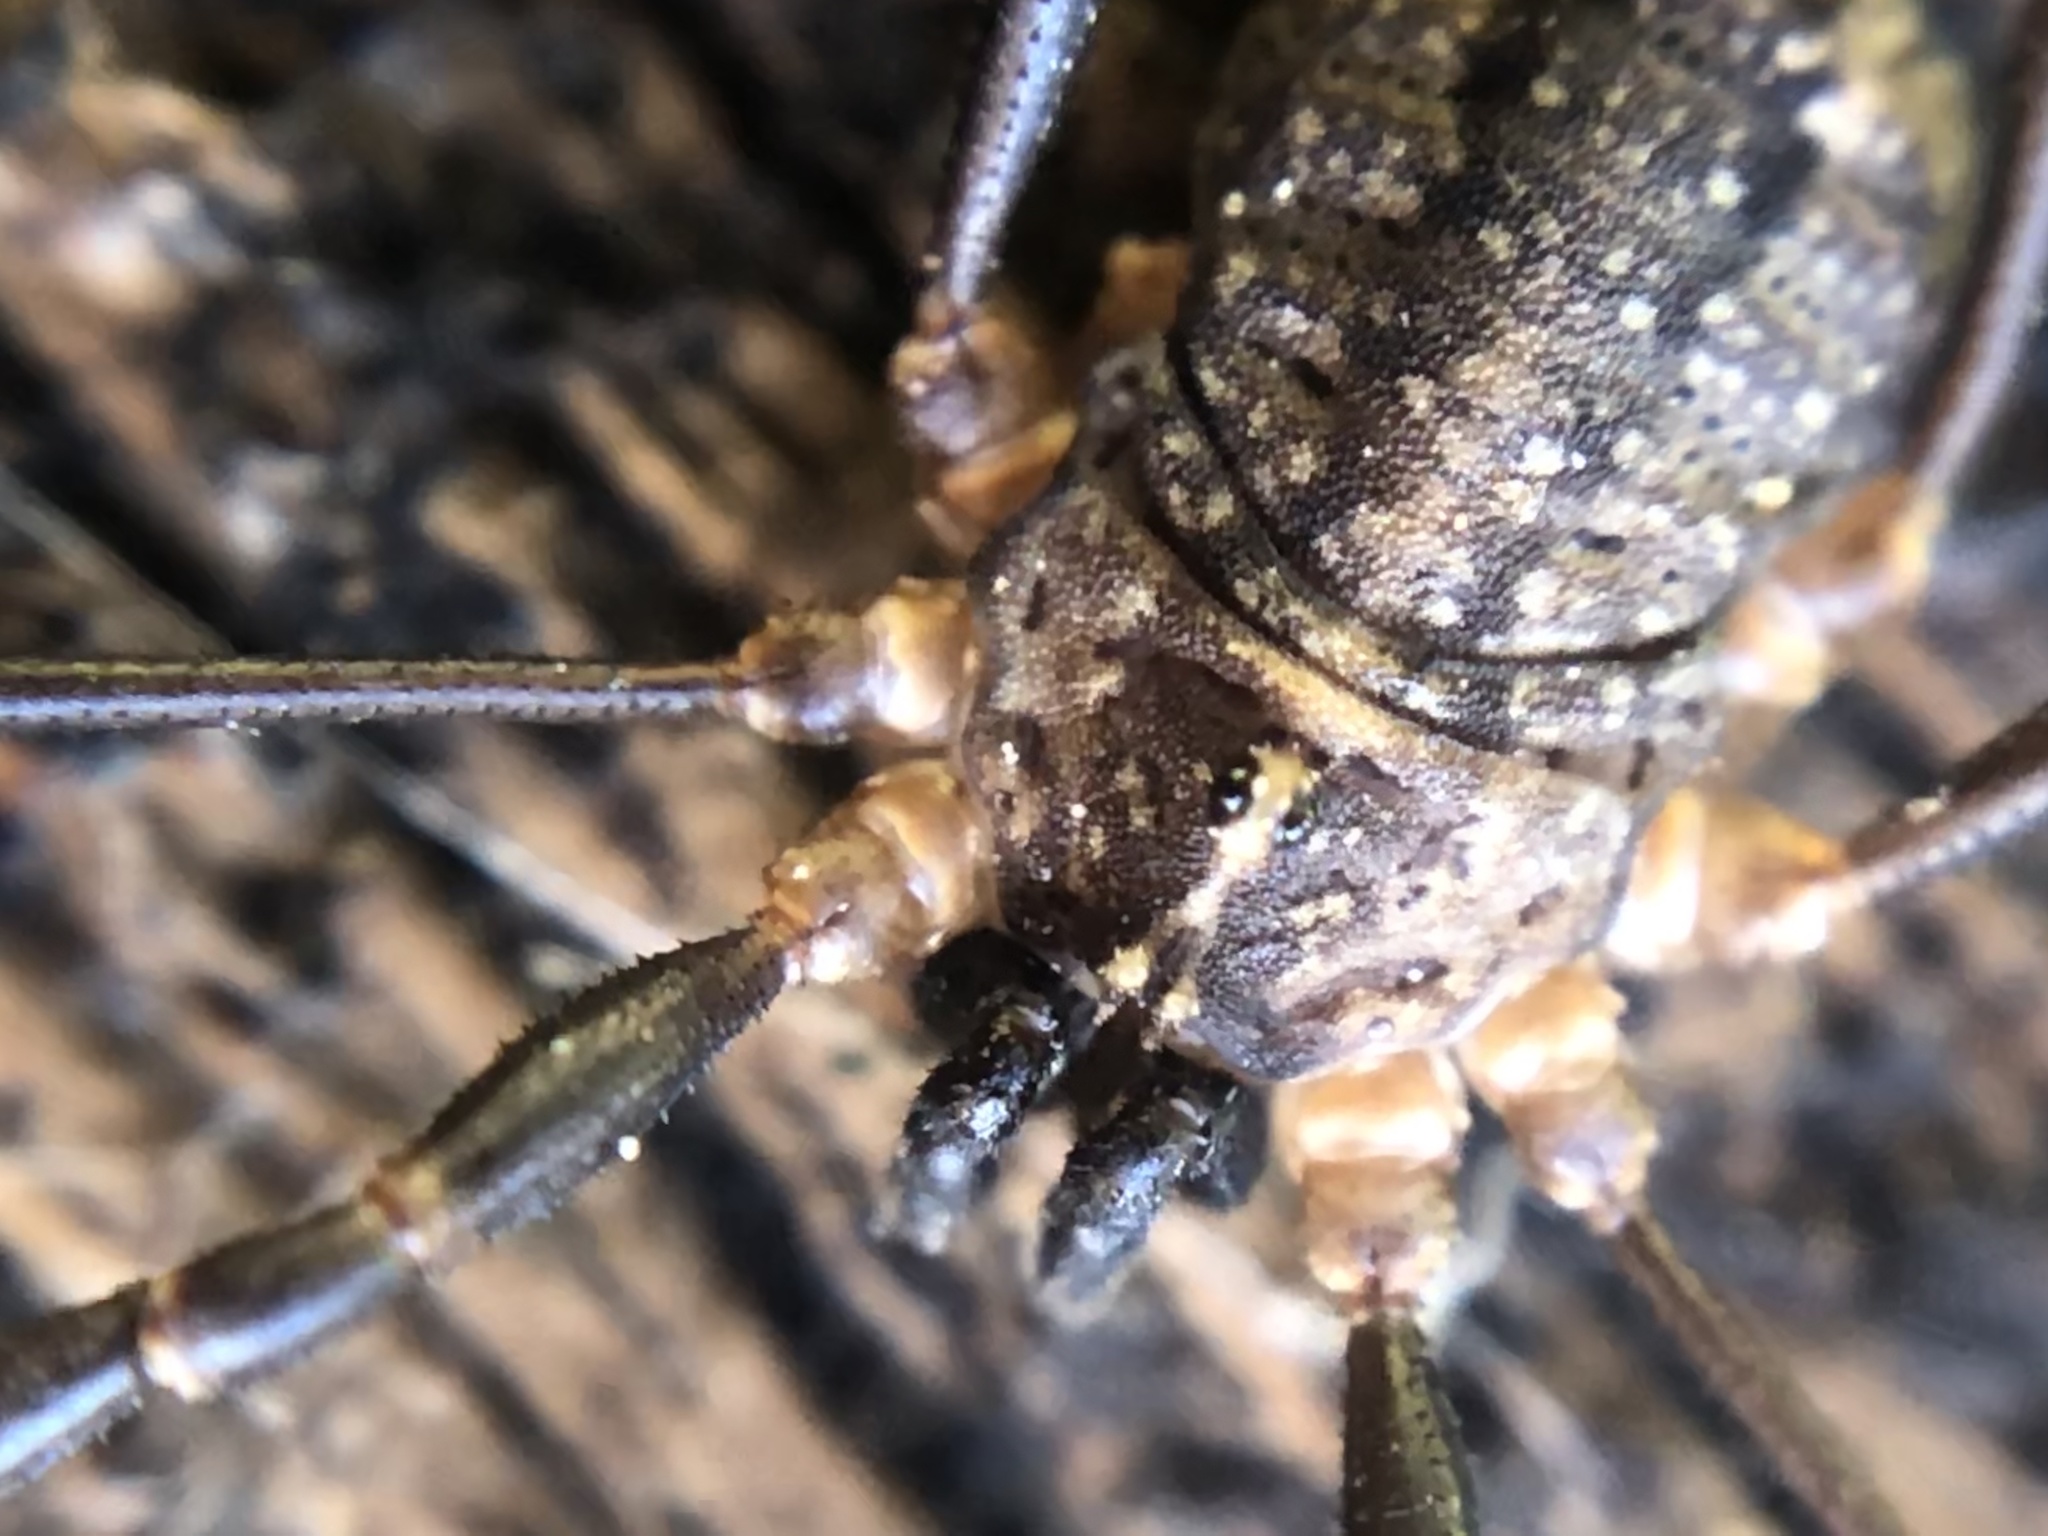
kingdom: Animalia
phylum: Arthropoda
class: Arachnida
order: Opiliones
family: Sclerosomatidae
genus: Togwoteeus
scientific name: Togwoteeus biceps
